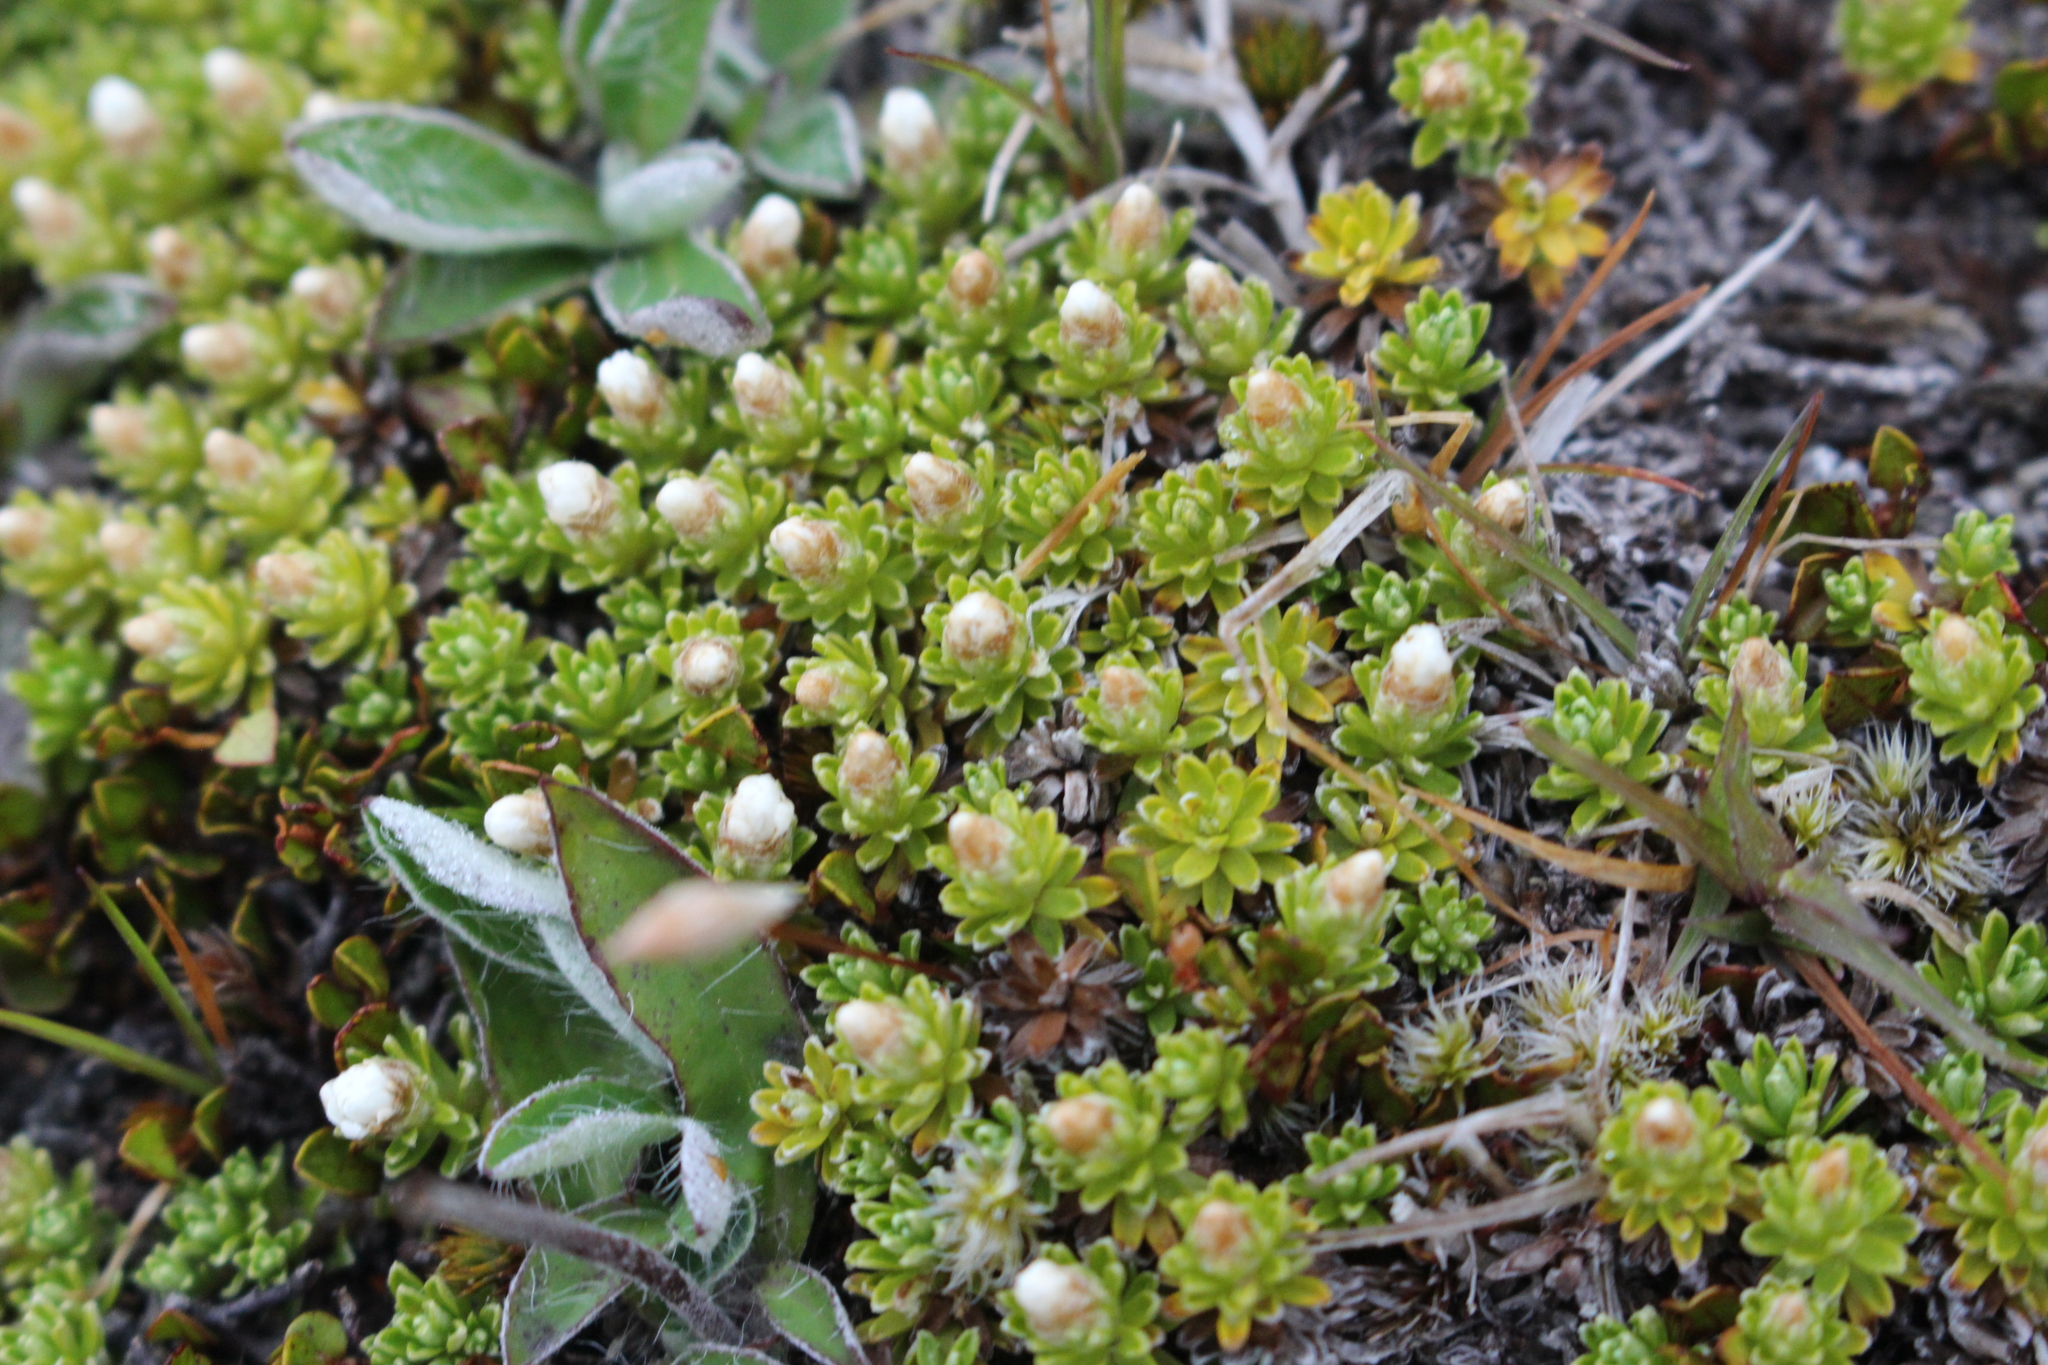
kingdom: Plantae
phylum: Tracheophyta
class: Magnoliopsida
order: Asterales
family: Asteraceae
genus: Raoulia
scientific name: Raoulia subsericea
